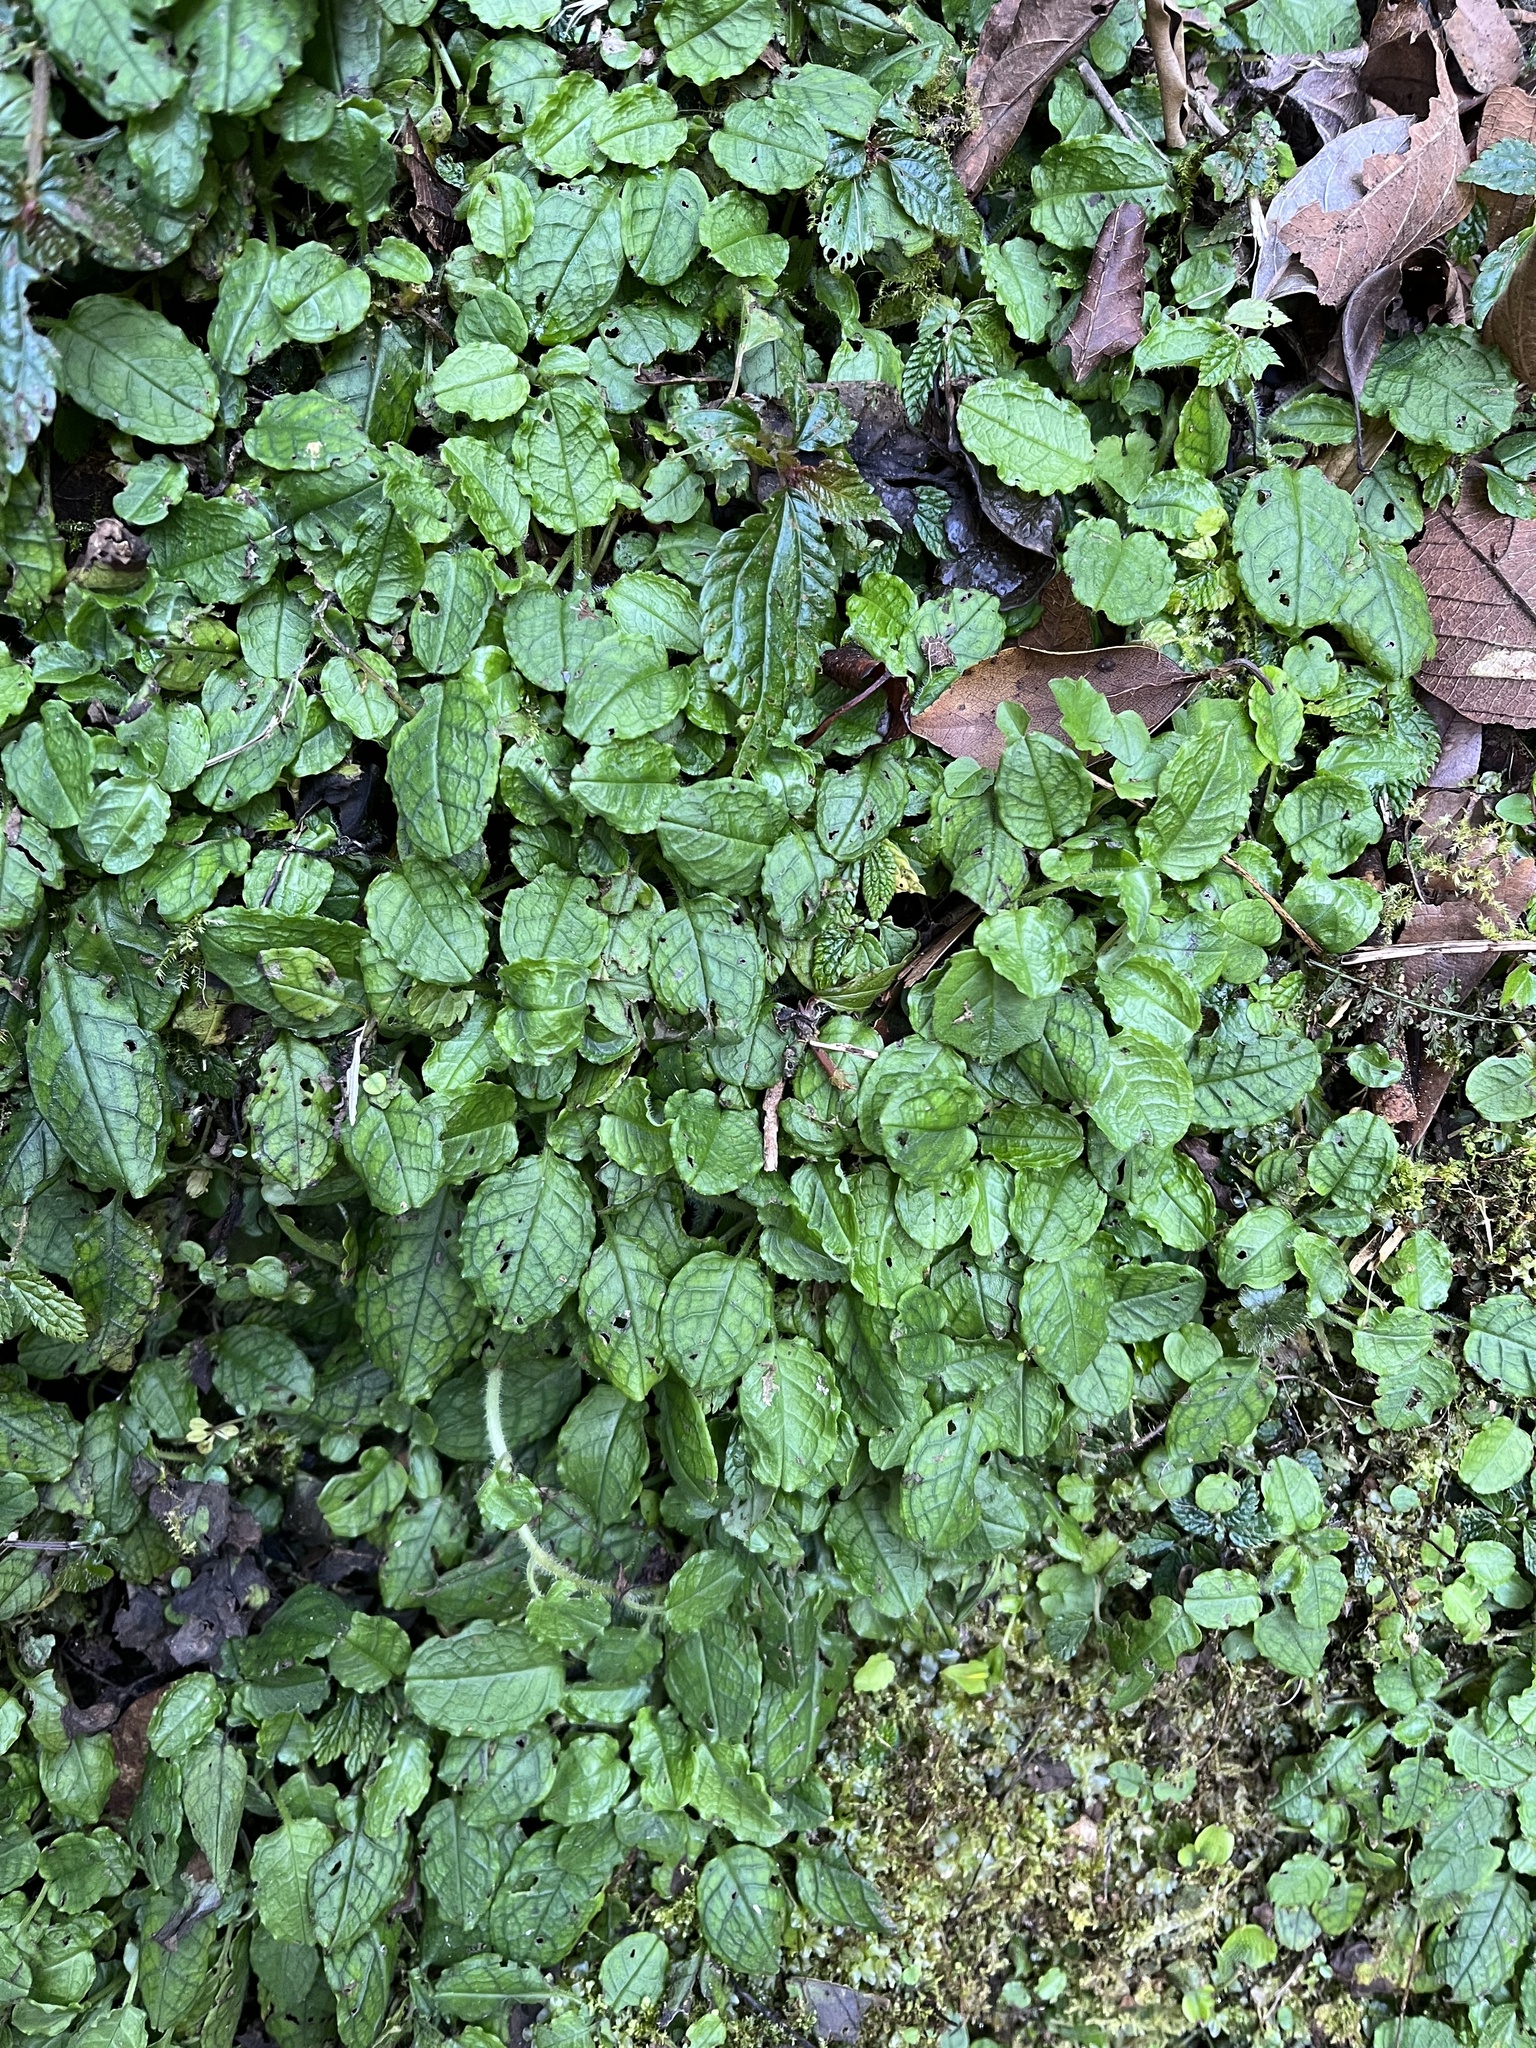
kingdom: Plantae
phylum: Tracheophyta
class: Magnoliopsida
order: Boraginales
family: Boraginaceae
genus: Trigonotis
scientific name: Trigonotis formosana
